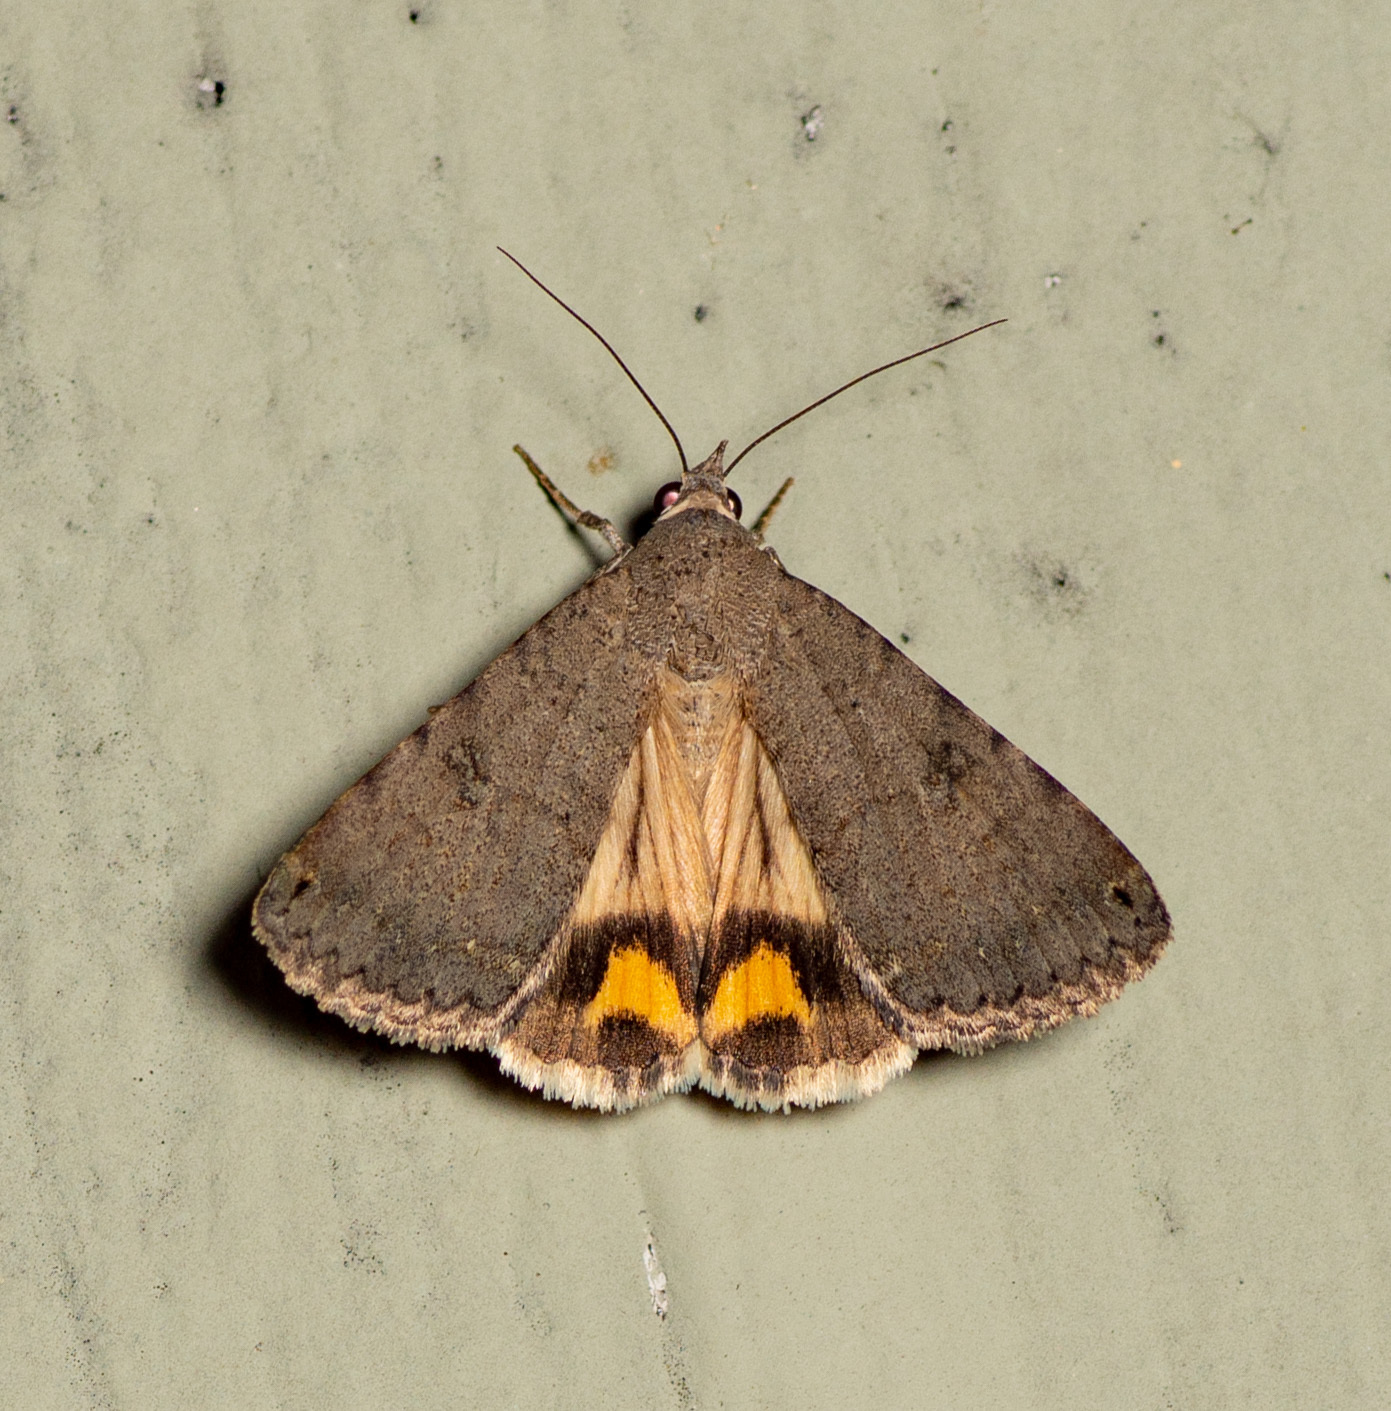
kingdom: Animalia
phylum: Arthropoda
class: Insecta
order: Lepidoptera
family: Erebidae
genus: Bulia
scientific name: Bulia deducta
